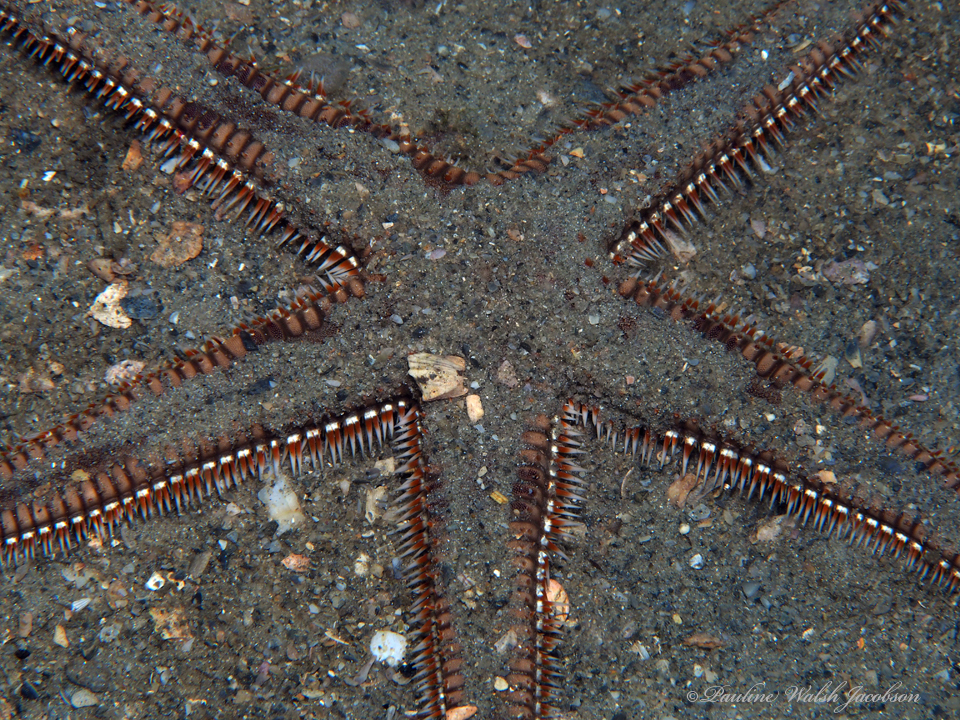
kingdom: Animalia
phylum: Echinodermata
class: Asteroidea
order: Paxillosida
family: Astropectinidae
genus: Astropecten
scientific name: Astropecten articulatus
